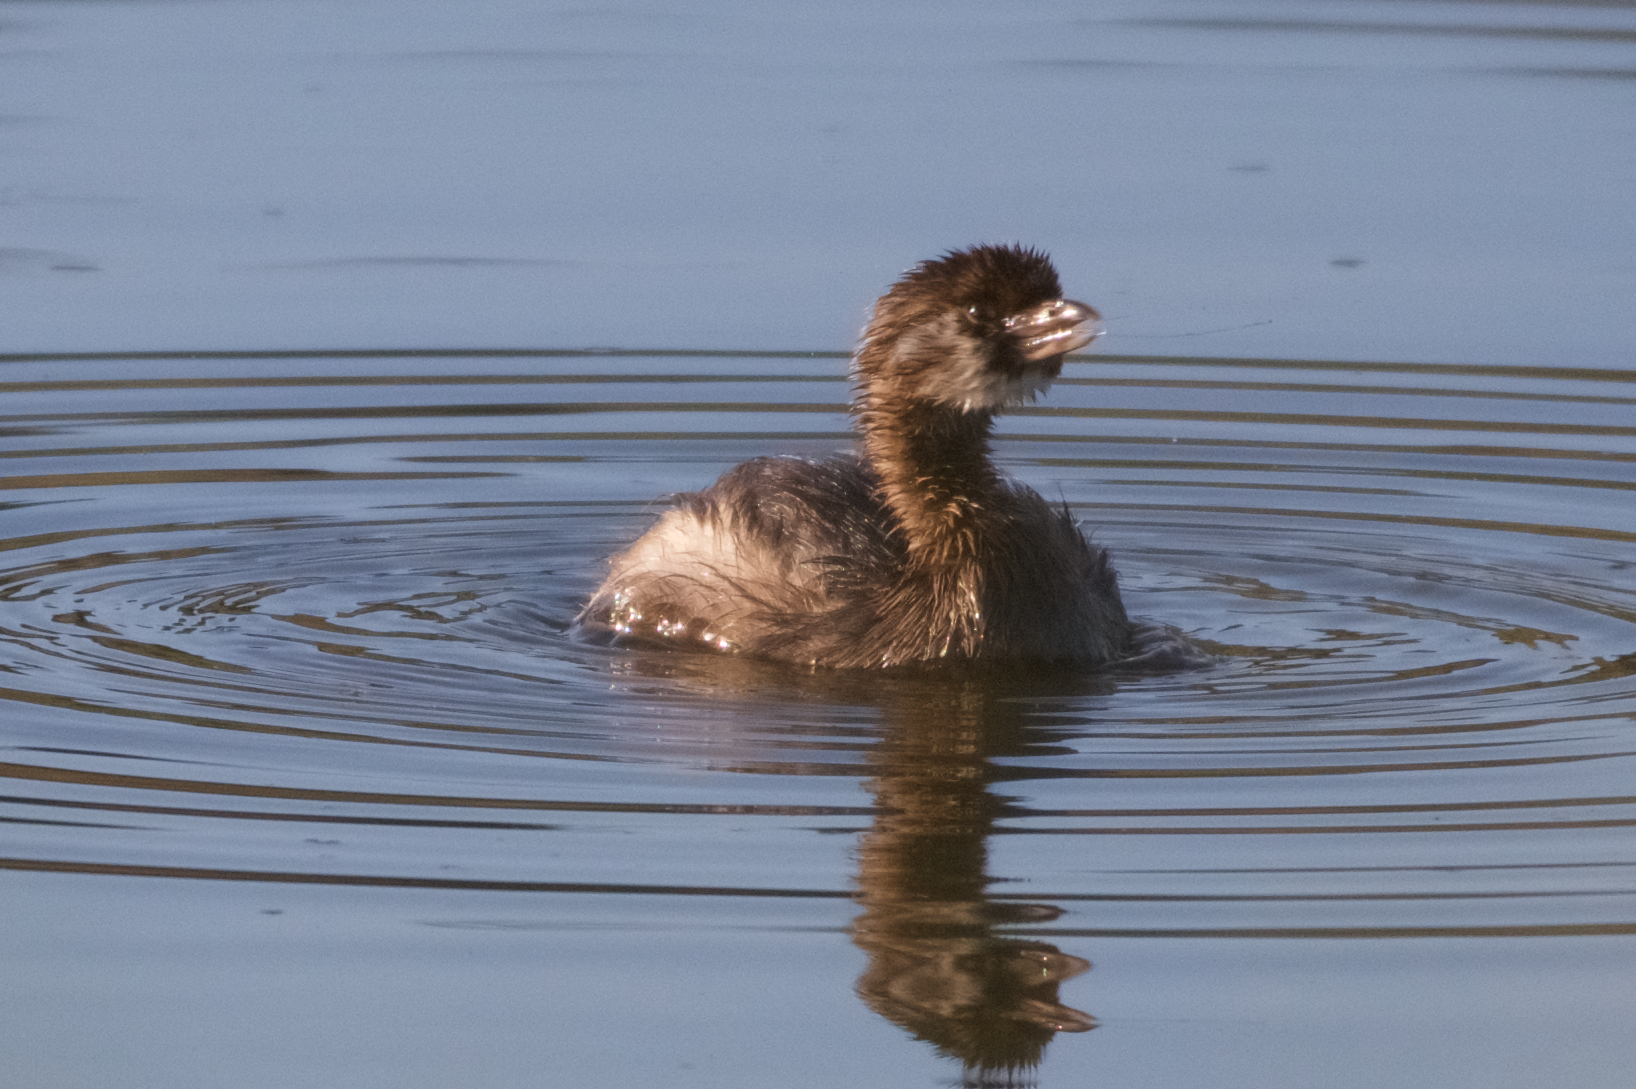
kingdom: Animalia
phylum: Chordata
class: Aves
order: Podicipediformes
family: Podicipedidae
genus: Podilymbus
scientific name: Podilymbus podiceps
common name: Pied-billed grebe
